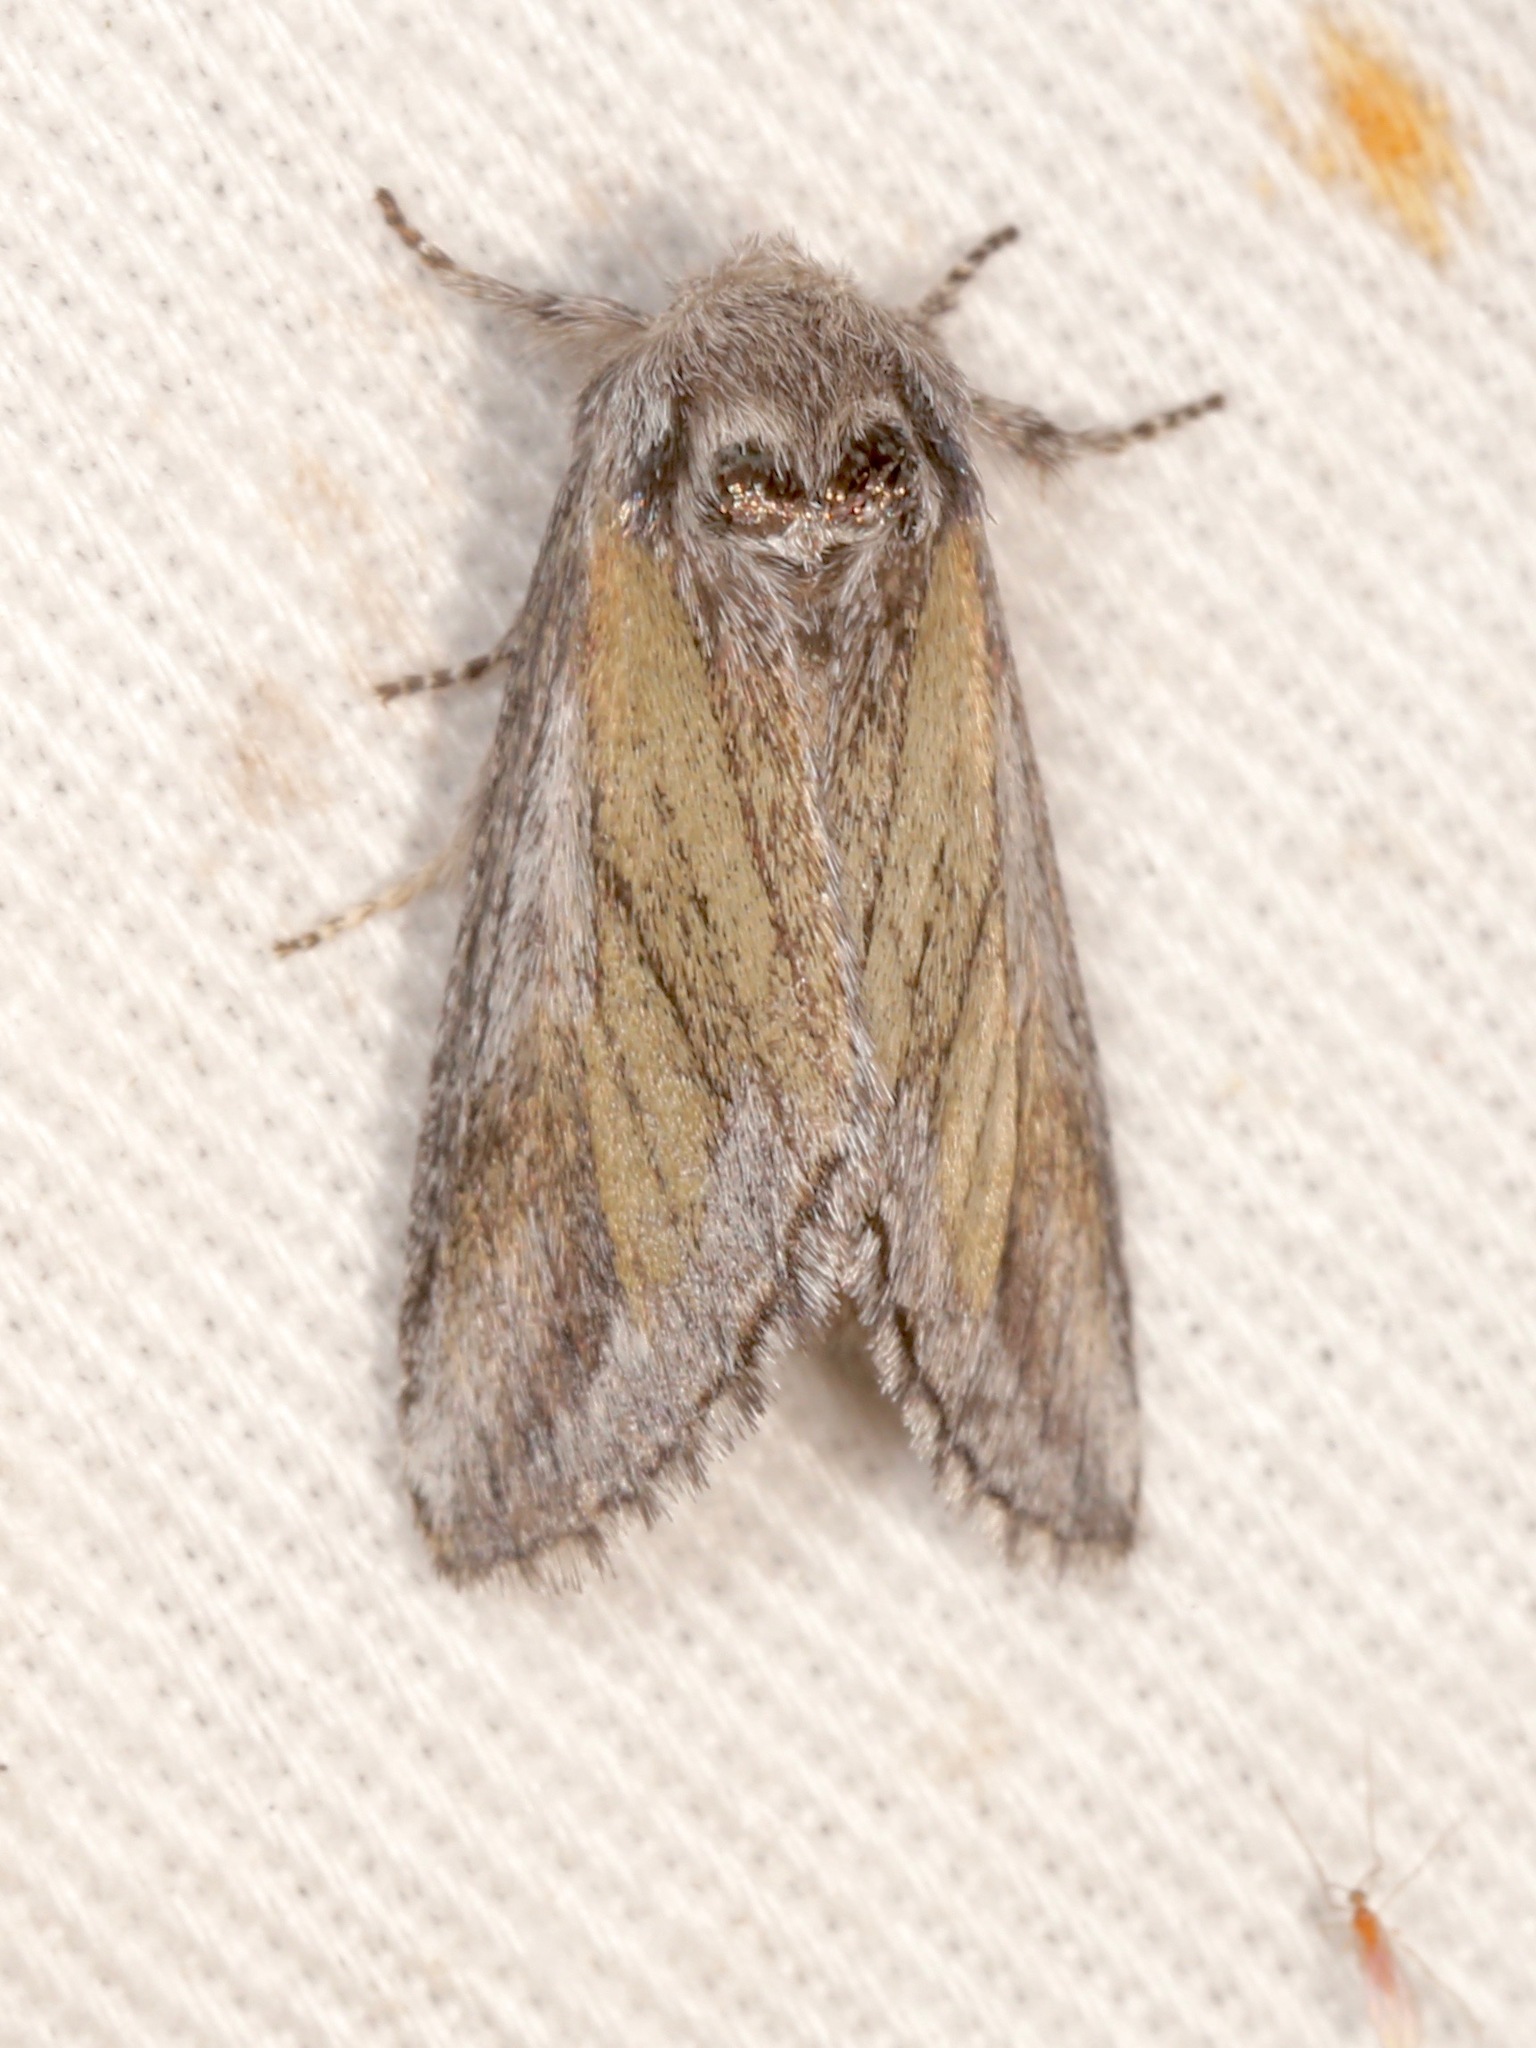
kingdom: Animalia
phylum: Arthropoda
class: Insecta
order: Lepidoptera
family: Notodontidae
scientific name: Notodontidae
